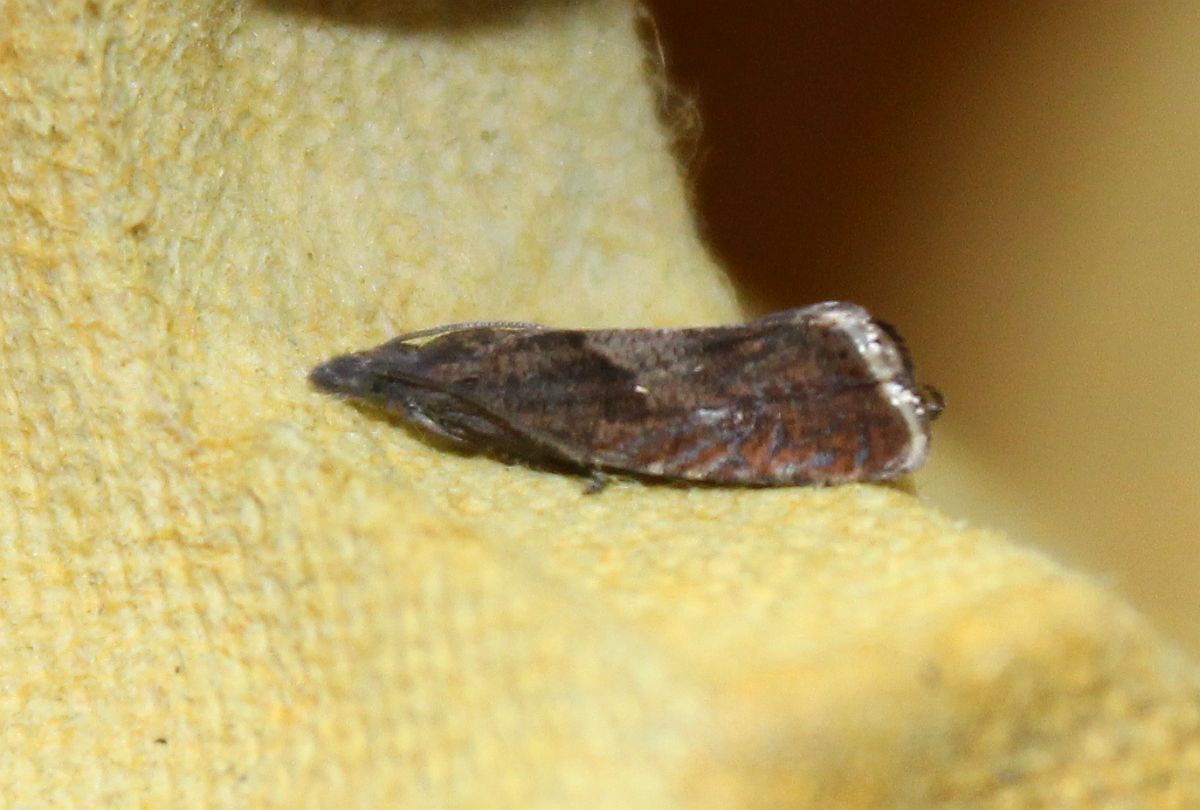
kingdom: Animalia
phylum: Arthropoda
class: Insecta
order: Lepidoptera
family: Tortricidae
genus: Dichrorampha
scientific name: Dichrorampha acuminatana
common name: Sharp-winged drill
